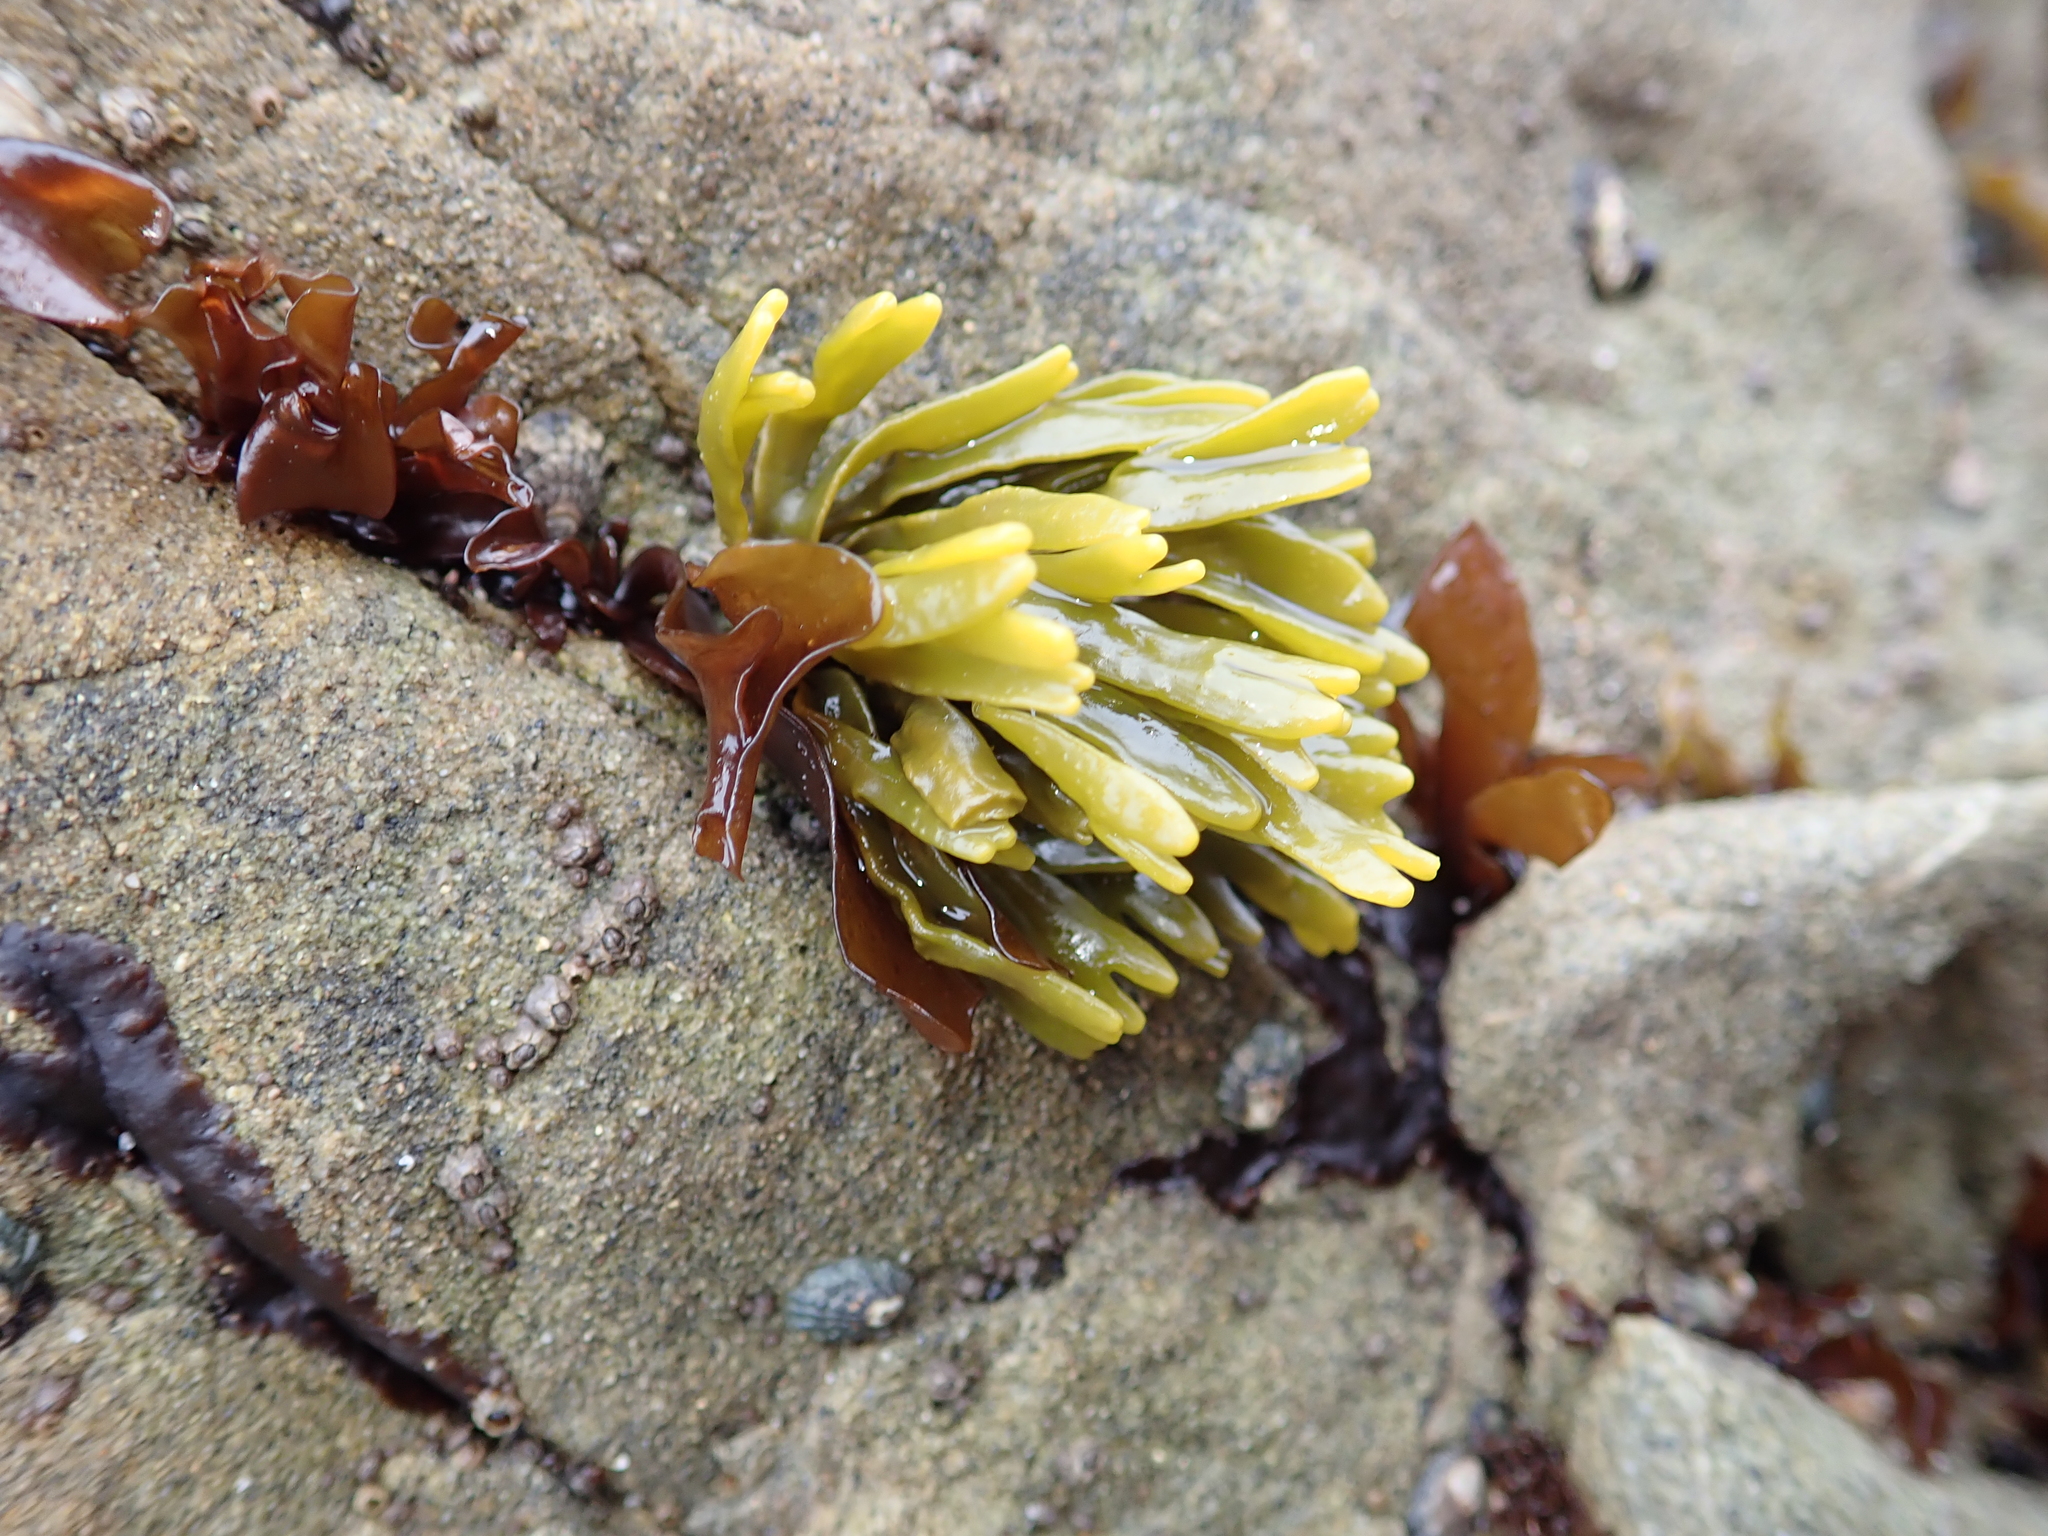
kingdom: Chromista
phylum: Ochrophyta
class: Phaeophyceae
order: Fucales
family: Fucaceae
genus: Pelvetiopsis
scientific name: Pelvetiopsis limitata
